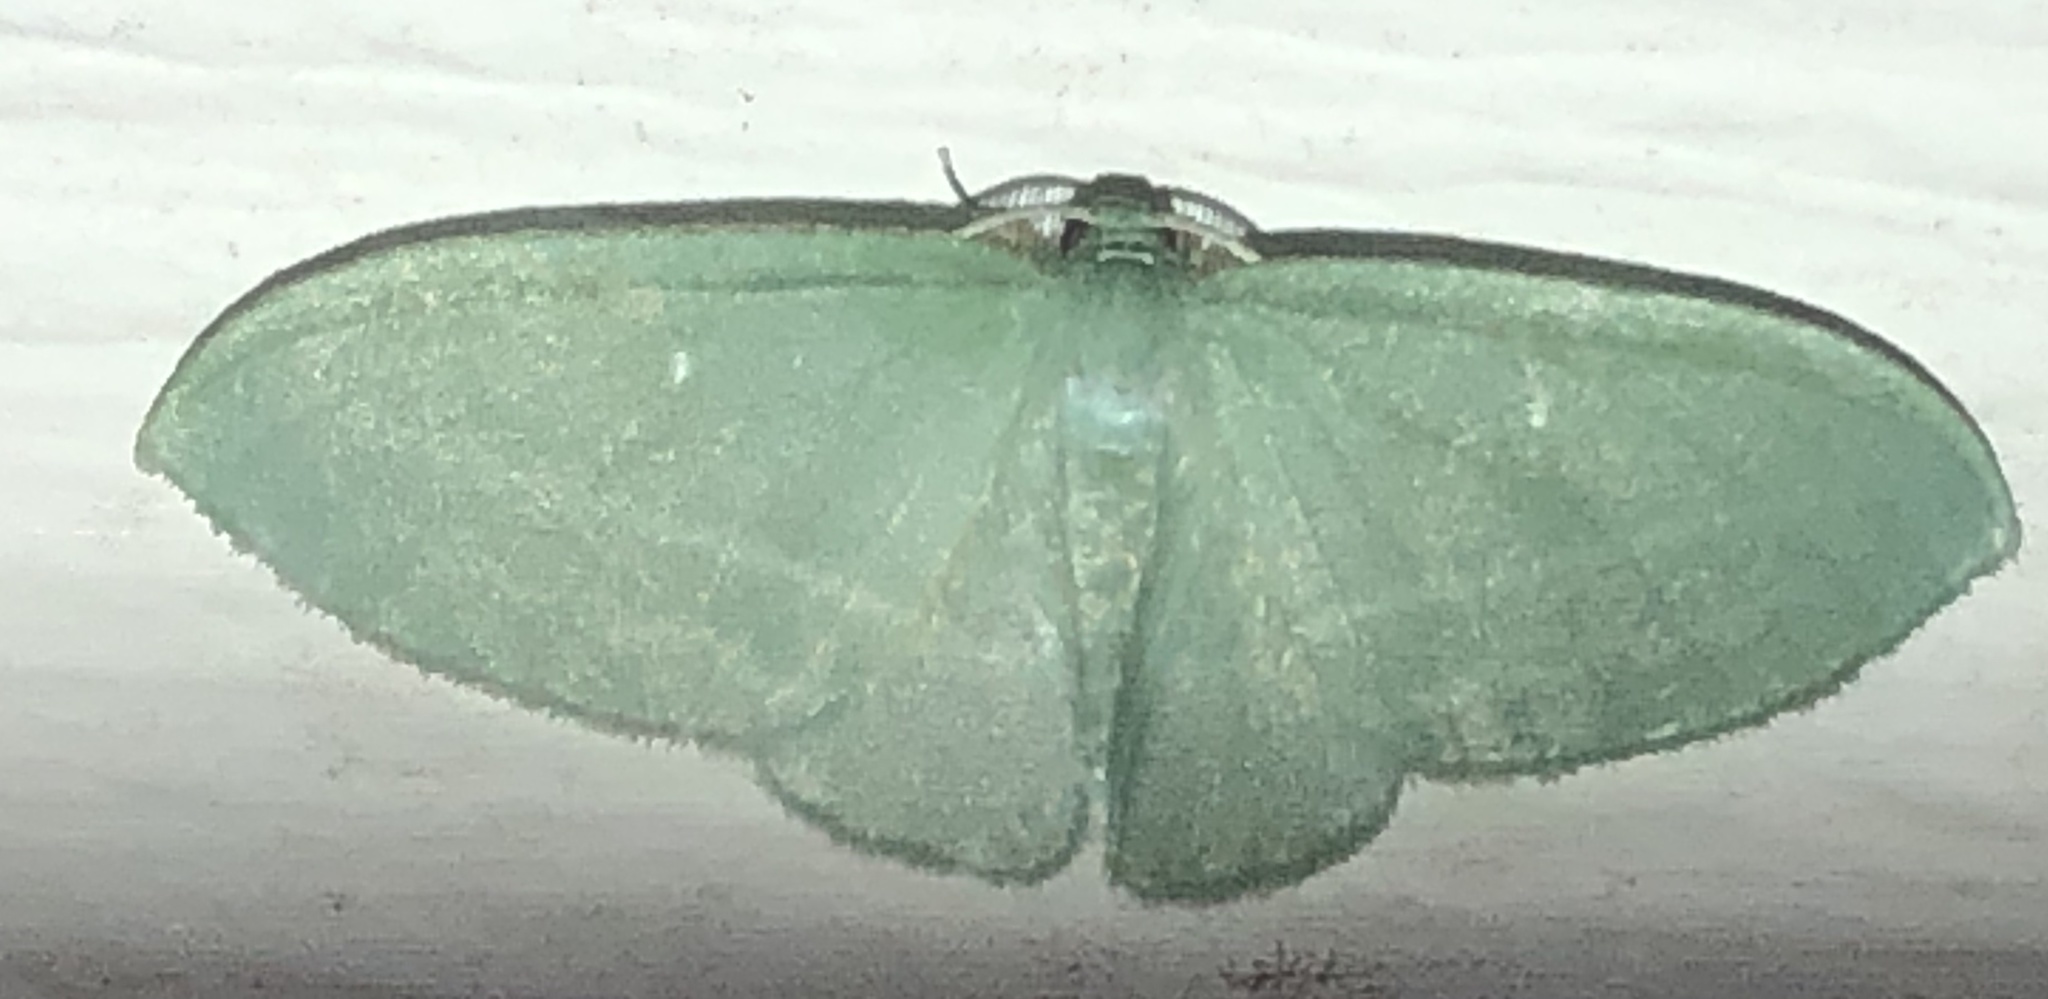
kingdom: Animalia
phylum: Arthropoda
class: Insecta
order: Lepidoptera
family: Geometridae
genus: Dyspteris
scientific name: Dyspteris abortivaria
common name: Bad-wing
